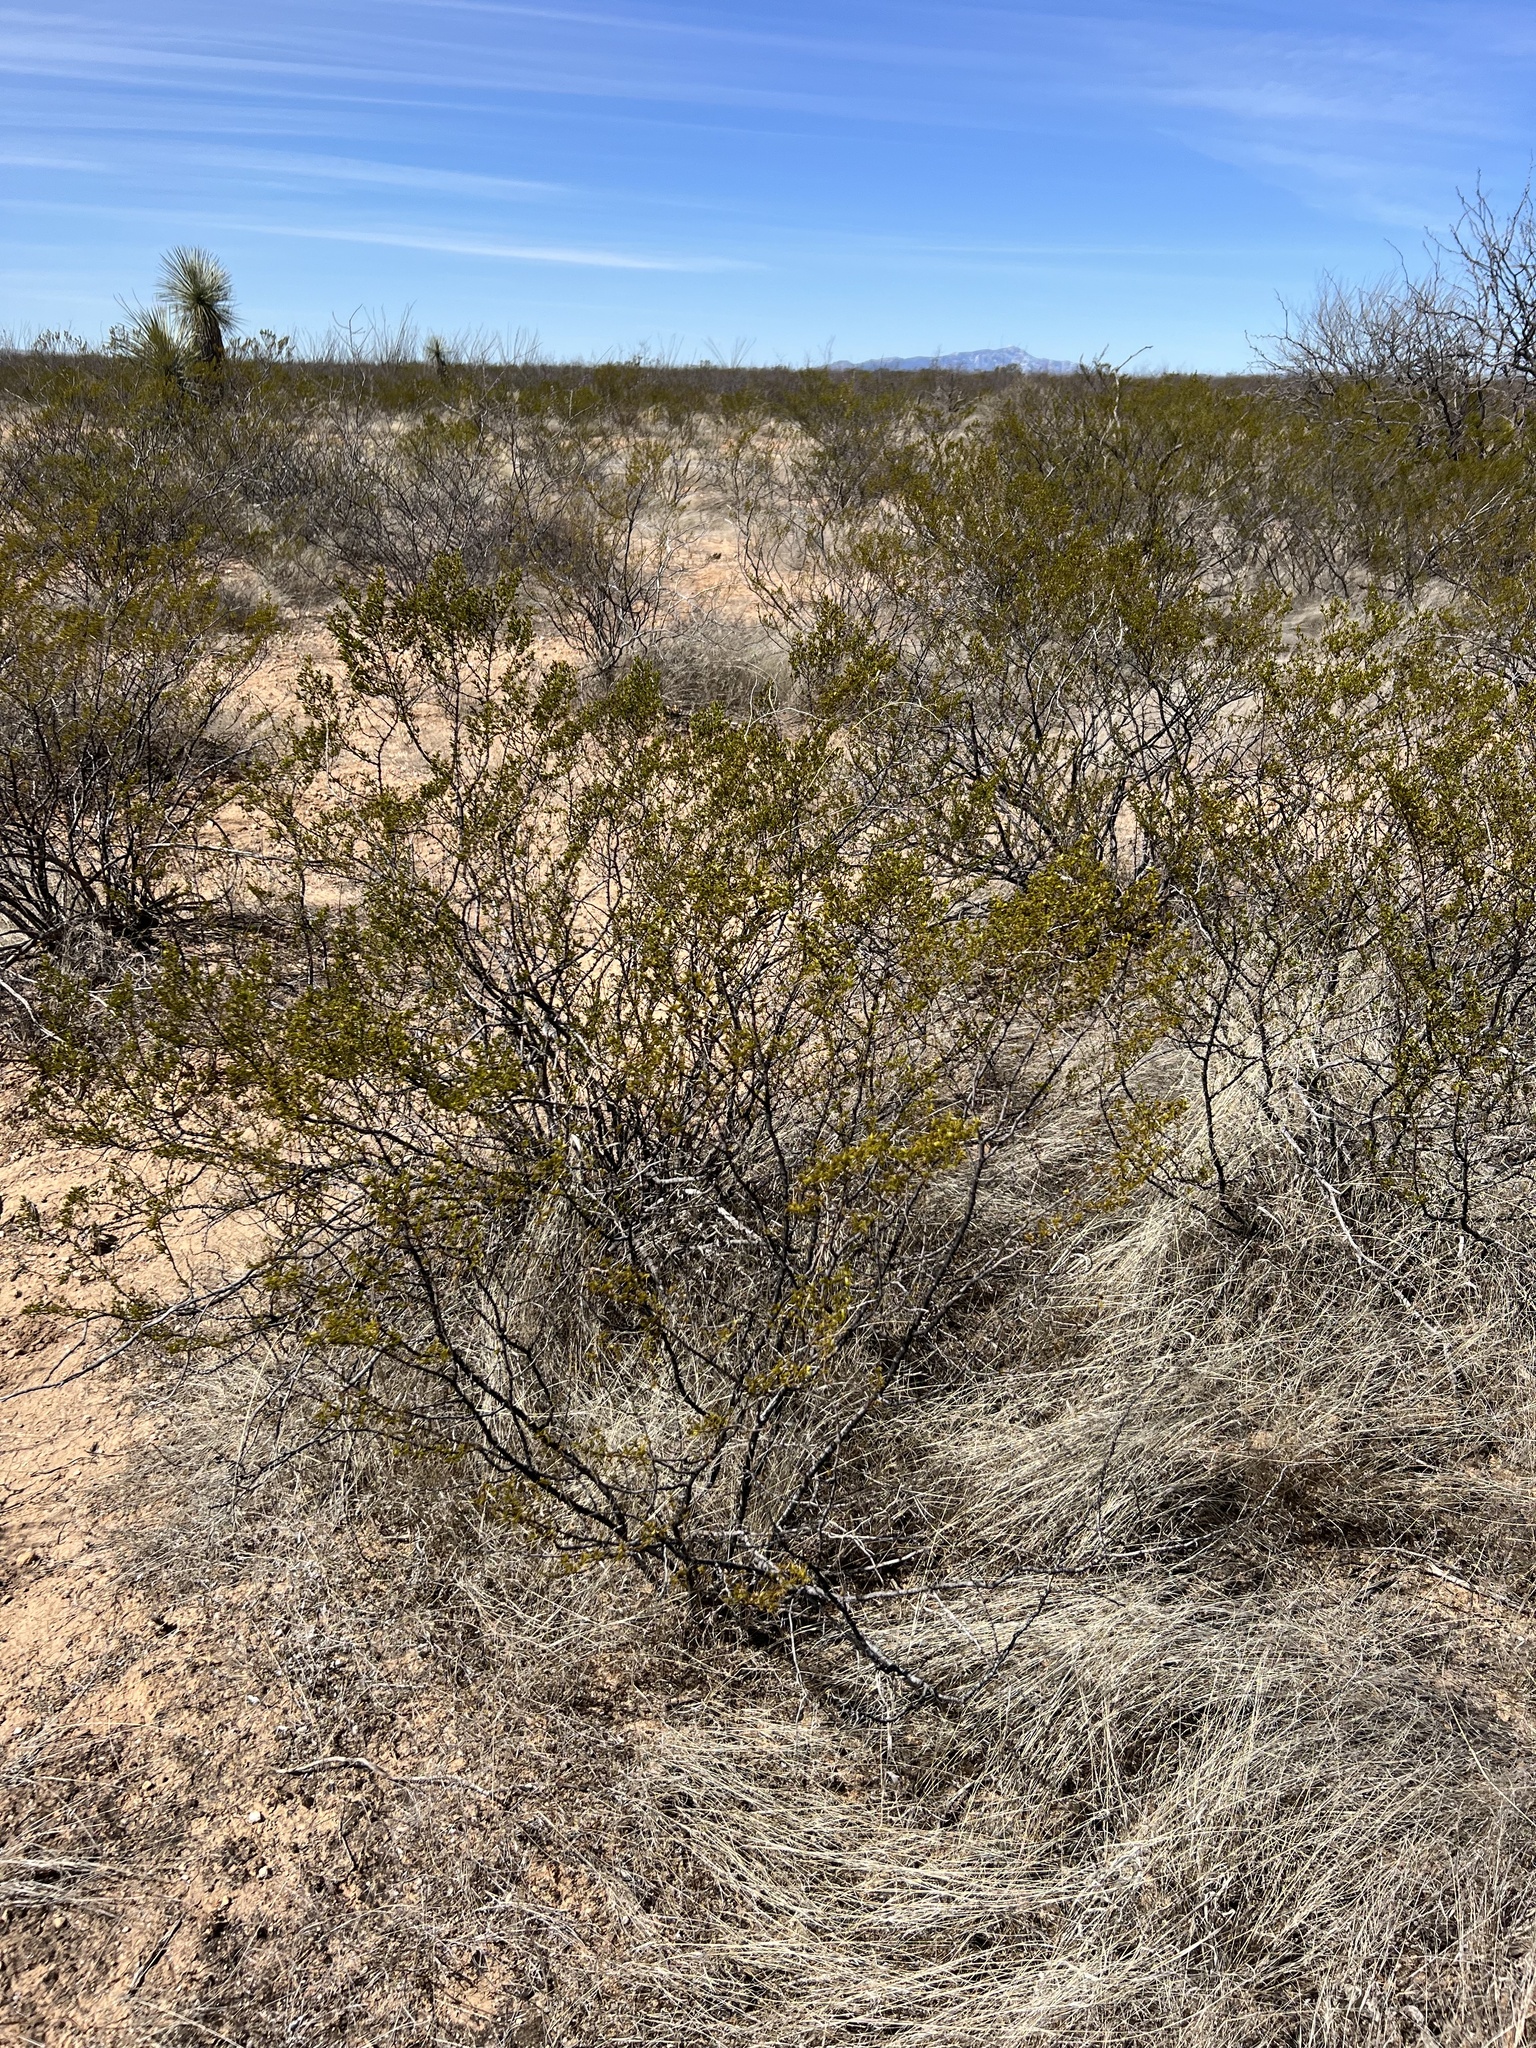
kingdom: Plantae
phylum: Tracheophyta
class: Magnoliopsida
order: Zygophyllales
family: Zygophyllaceae
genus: Larrea
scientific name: Larrea tridentata
